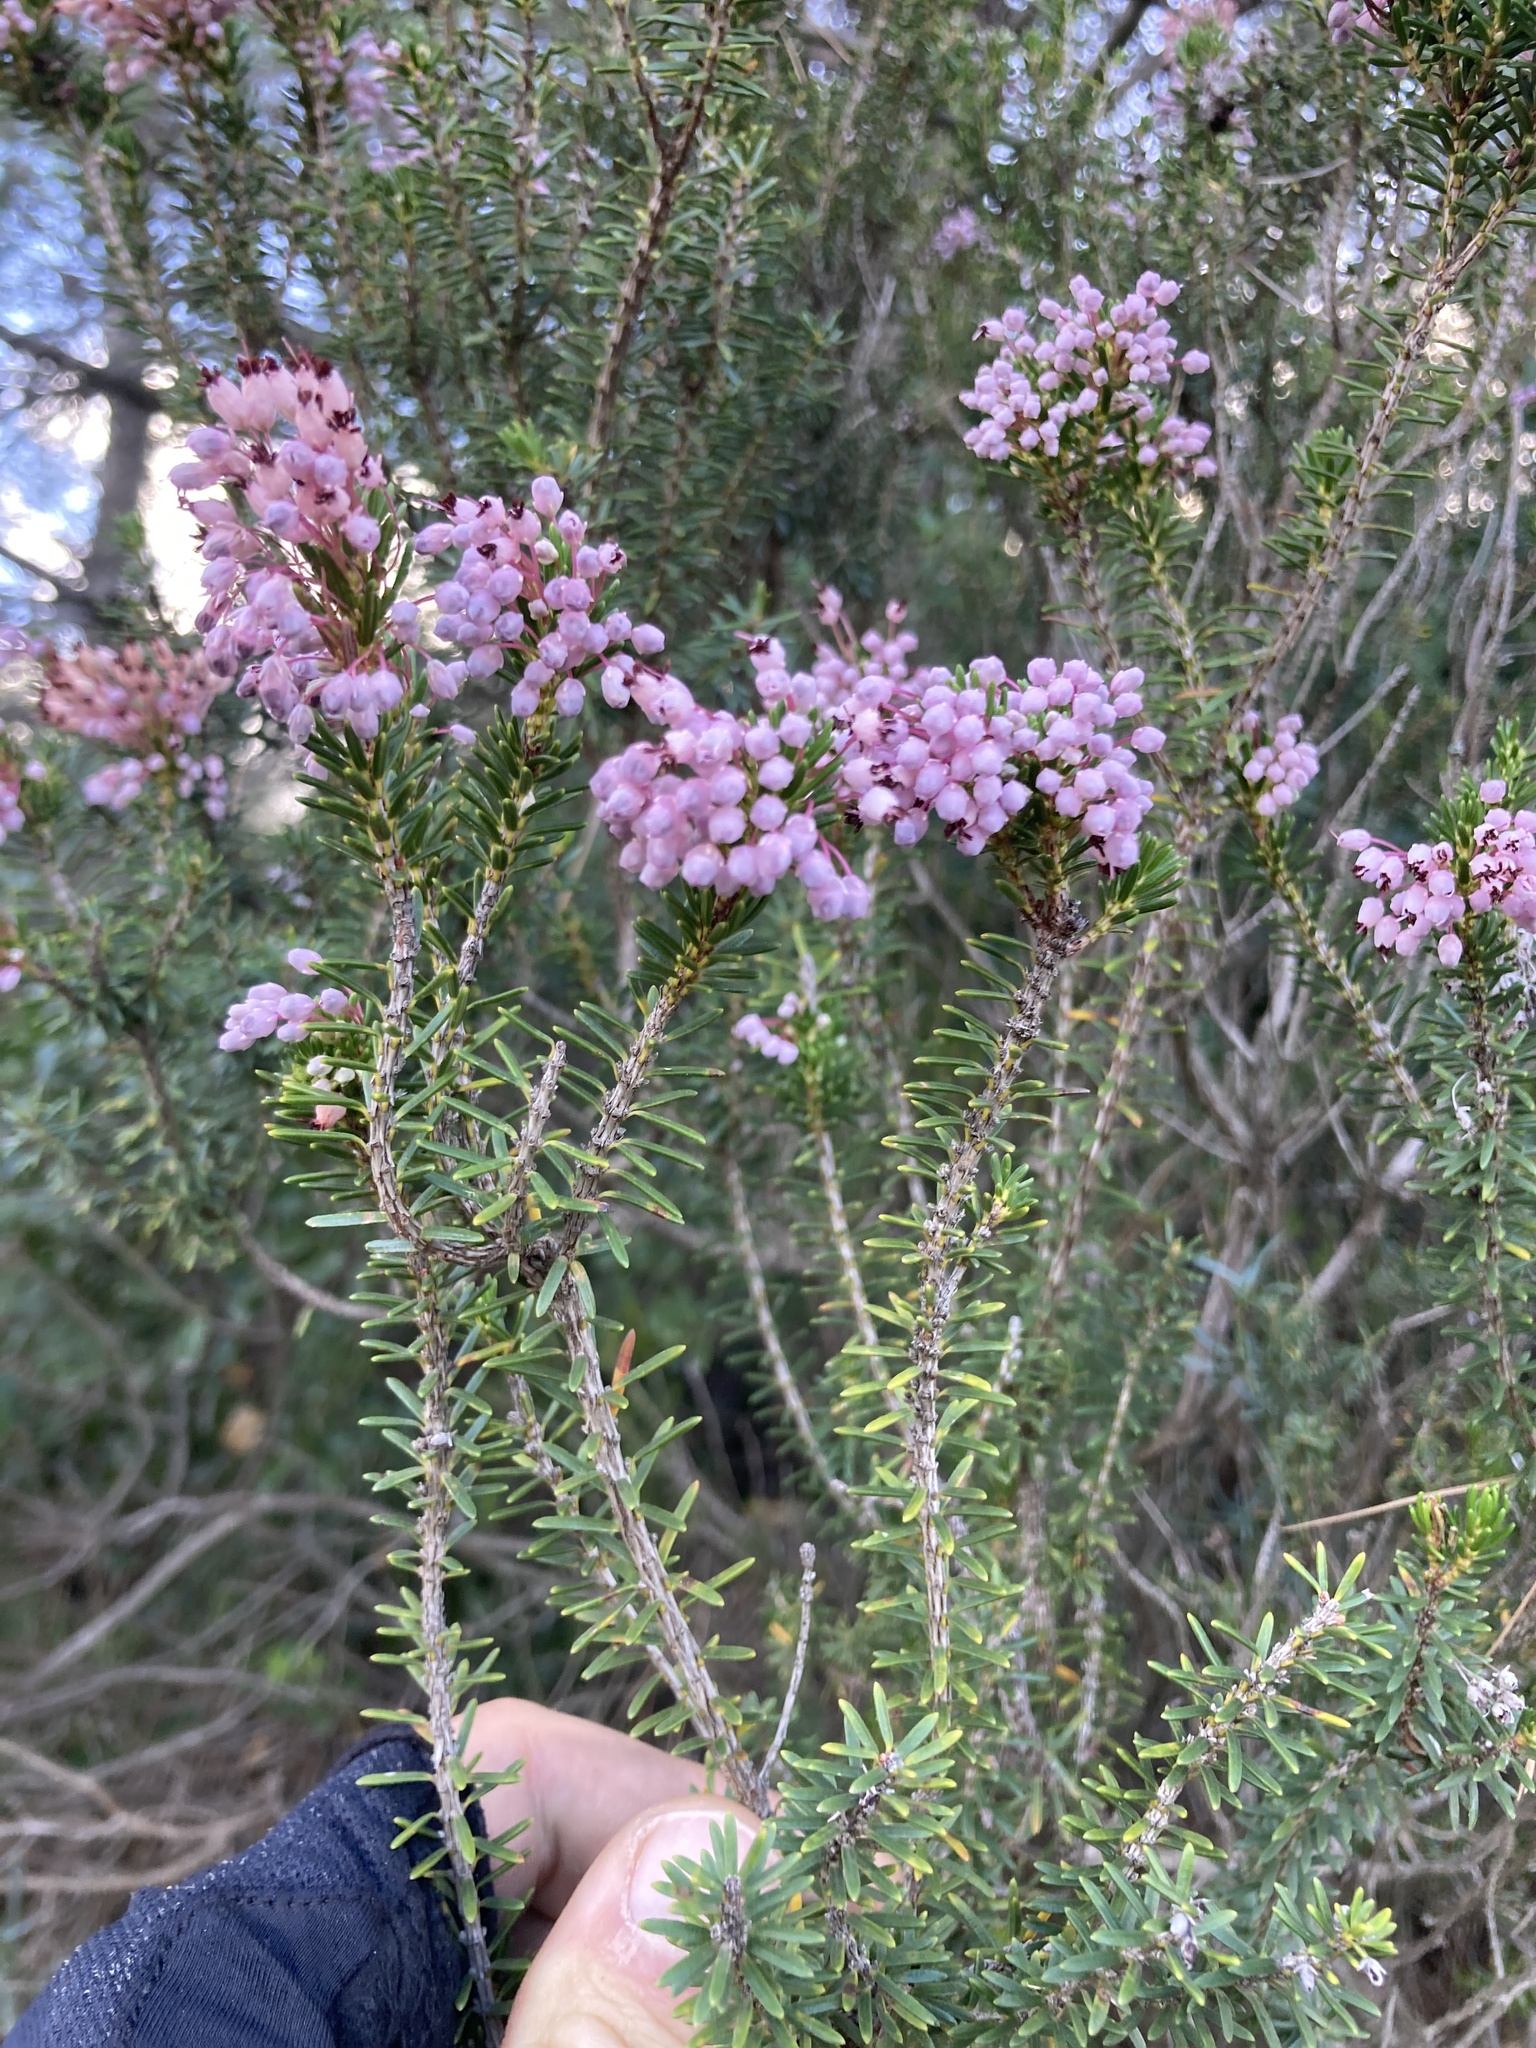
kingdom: Plantae
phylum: Tracheophyta
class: Magnoliopsida
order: Ericales
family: Ericaceae
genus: Erica
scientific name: Erica multiflora
